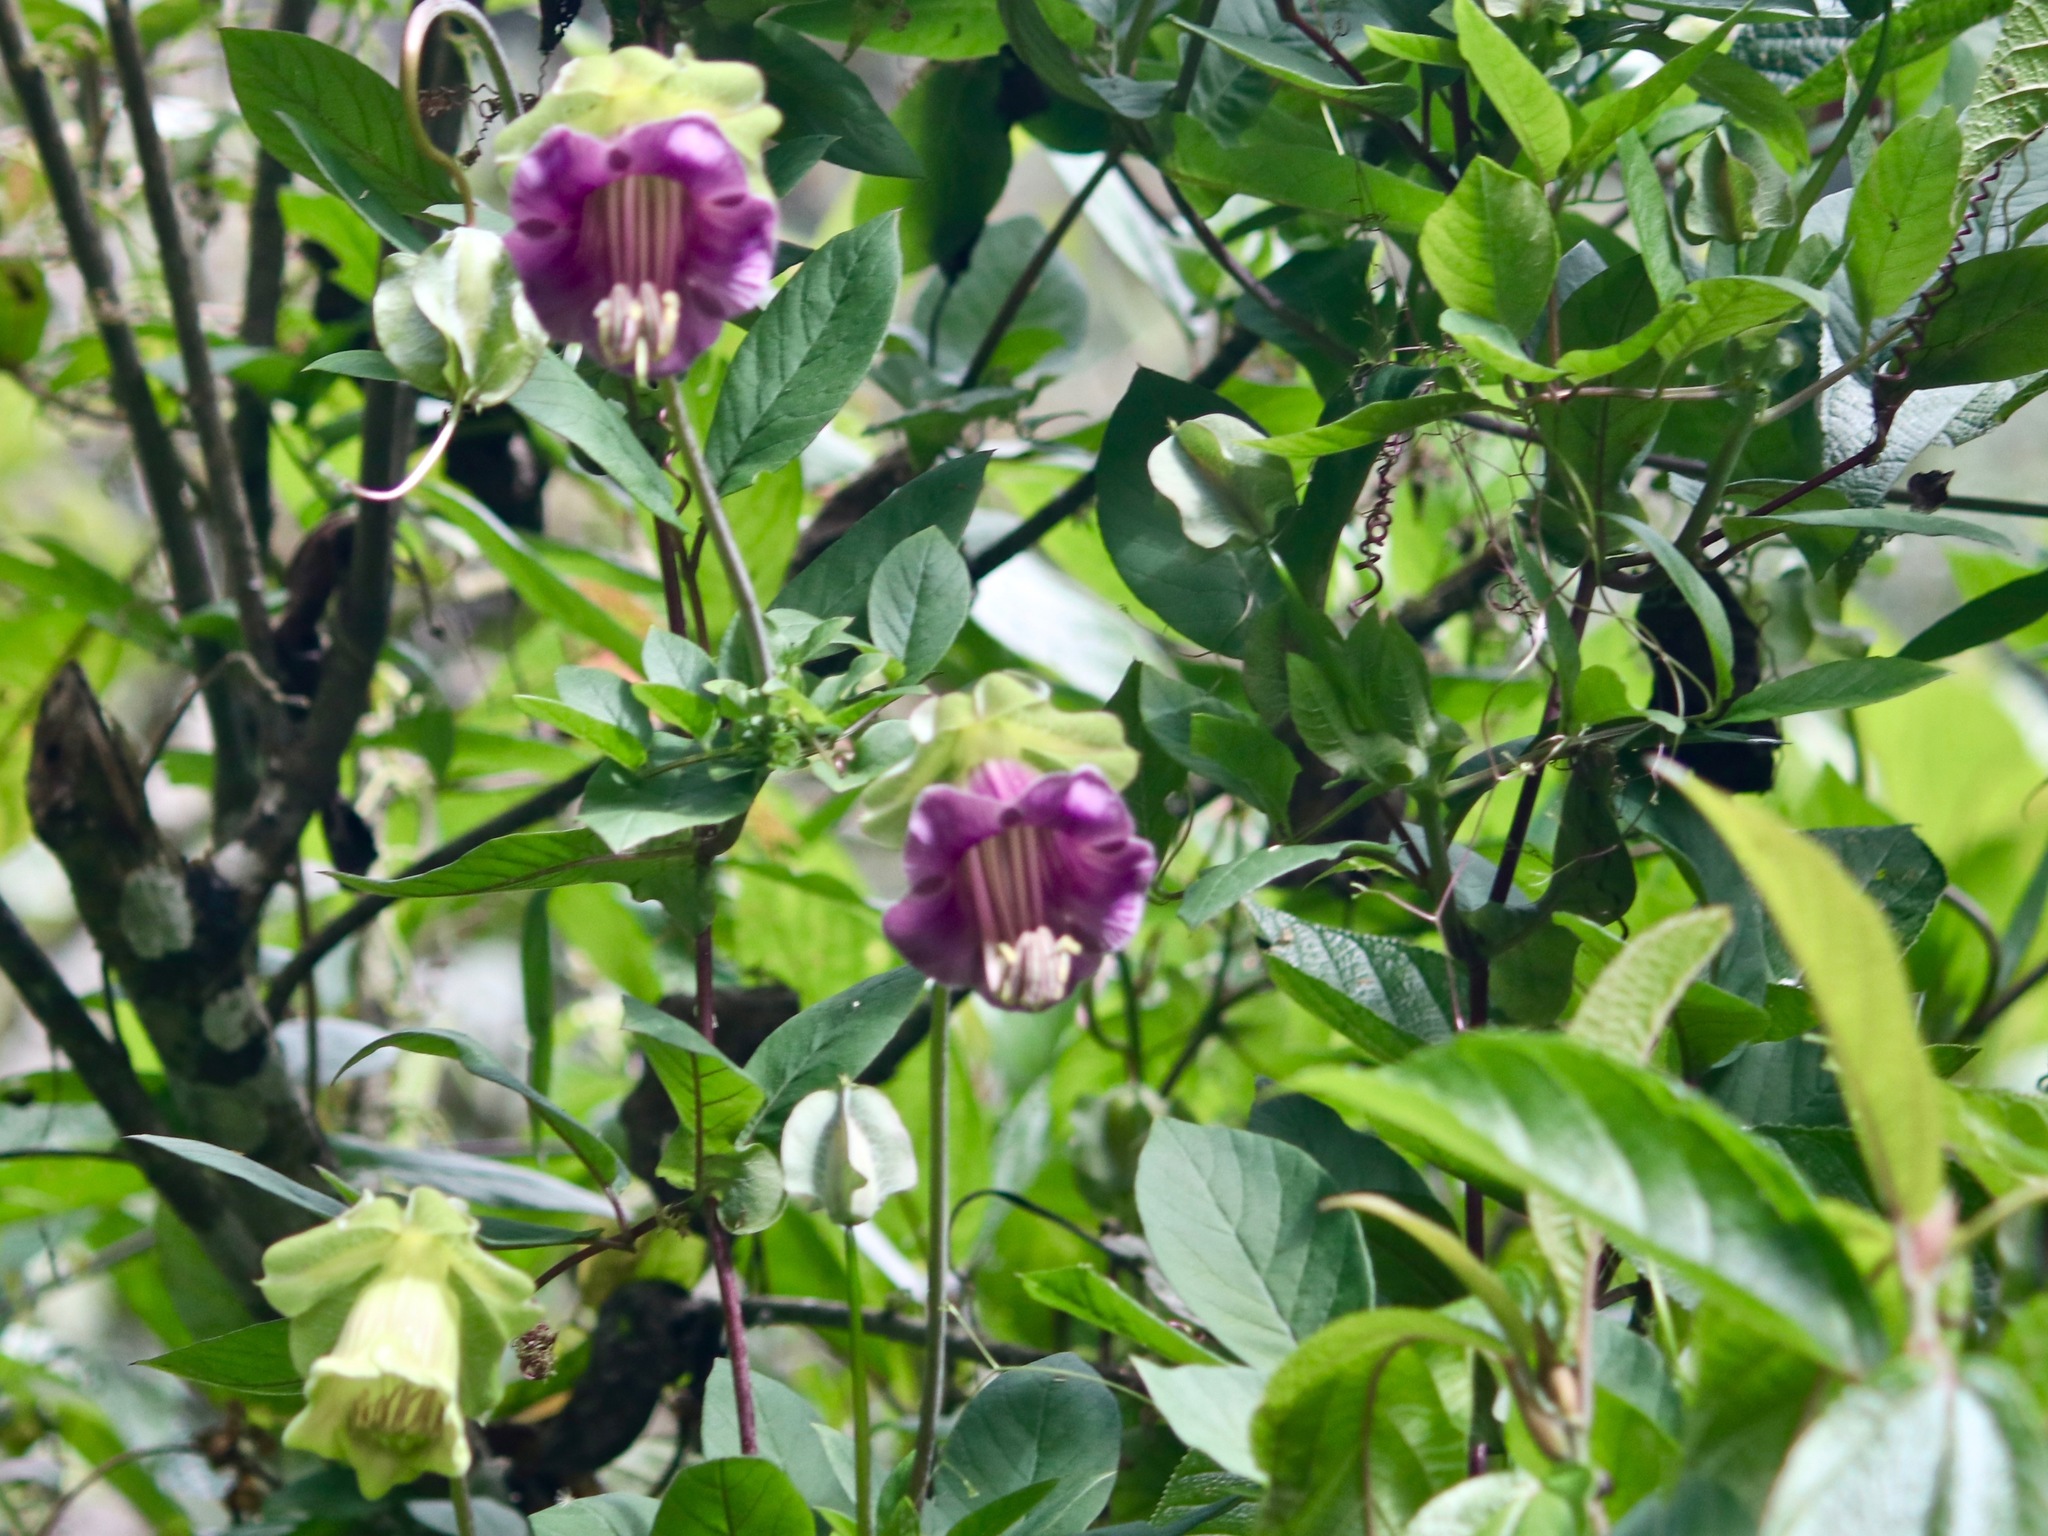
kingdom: Plantae
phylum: Tracheophyta
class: Magnoliopsida
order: Ericales
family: Polemoniaceae
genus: Cobaea
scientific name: Cobaea scandens
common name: Cup-and-saucer-vine
